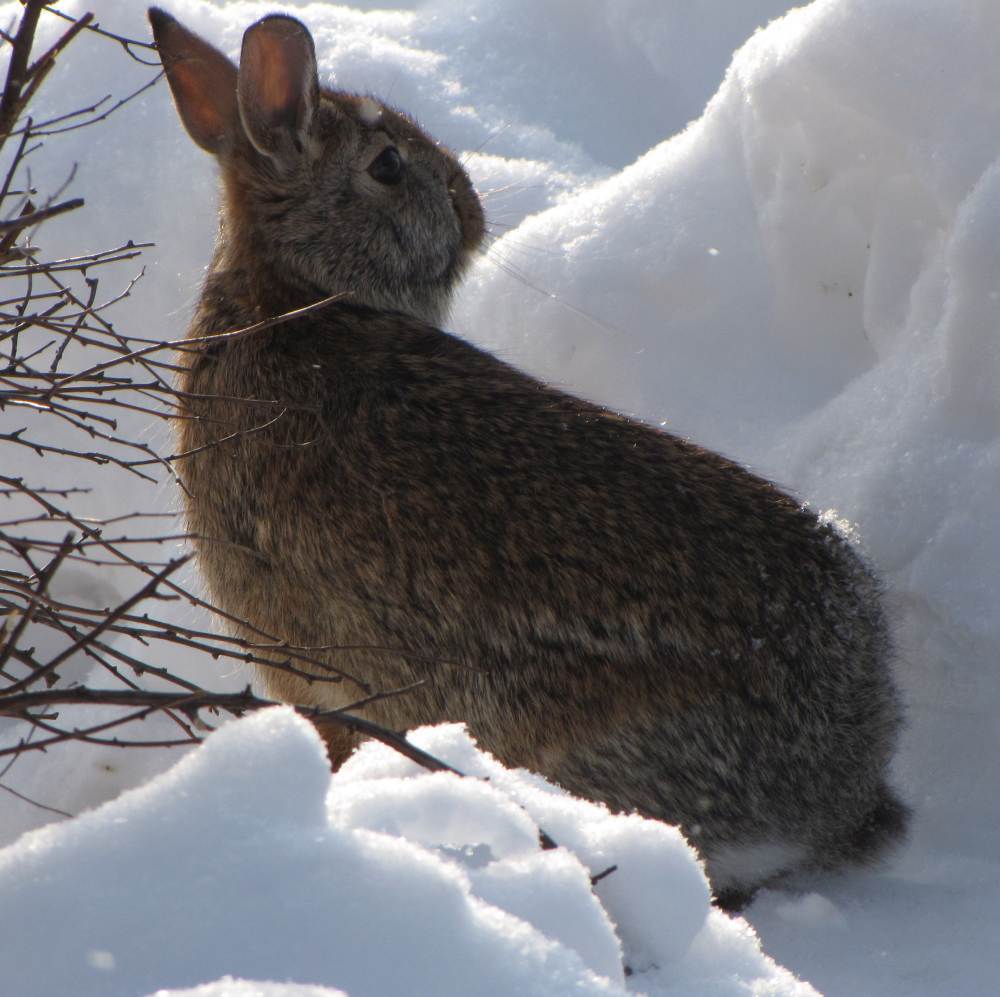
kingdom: Animalia
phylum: Chordata
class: Mammalia
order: Lagomorpha
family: Leporidae
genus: Sylvilagus
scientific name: Sylvilagus floridanus
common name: Eastern cottontail
